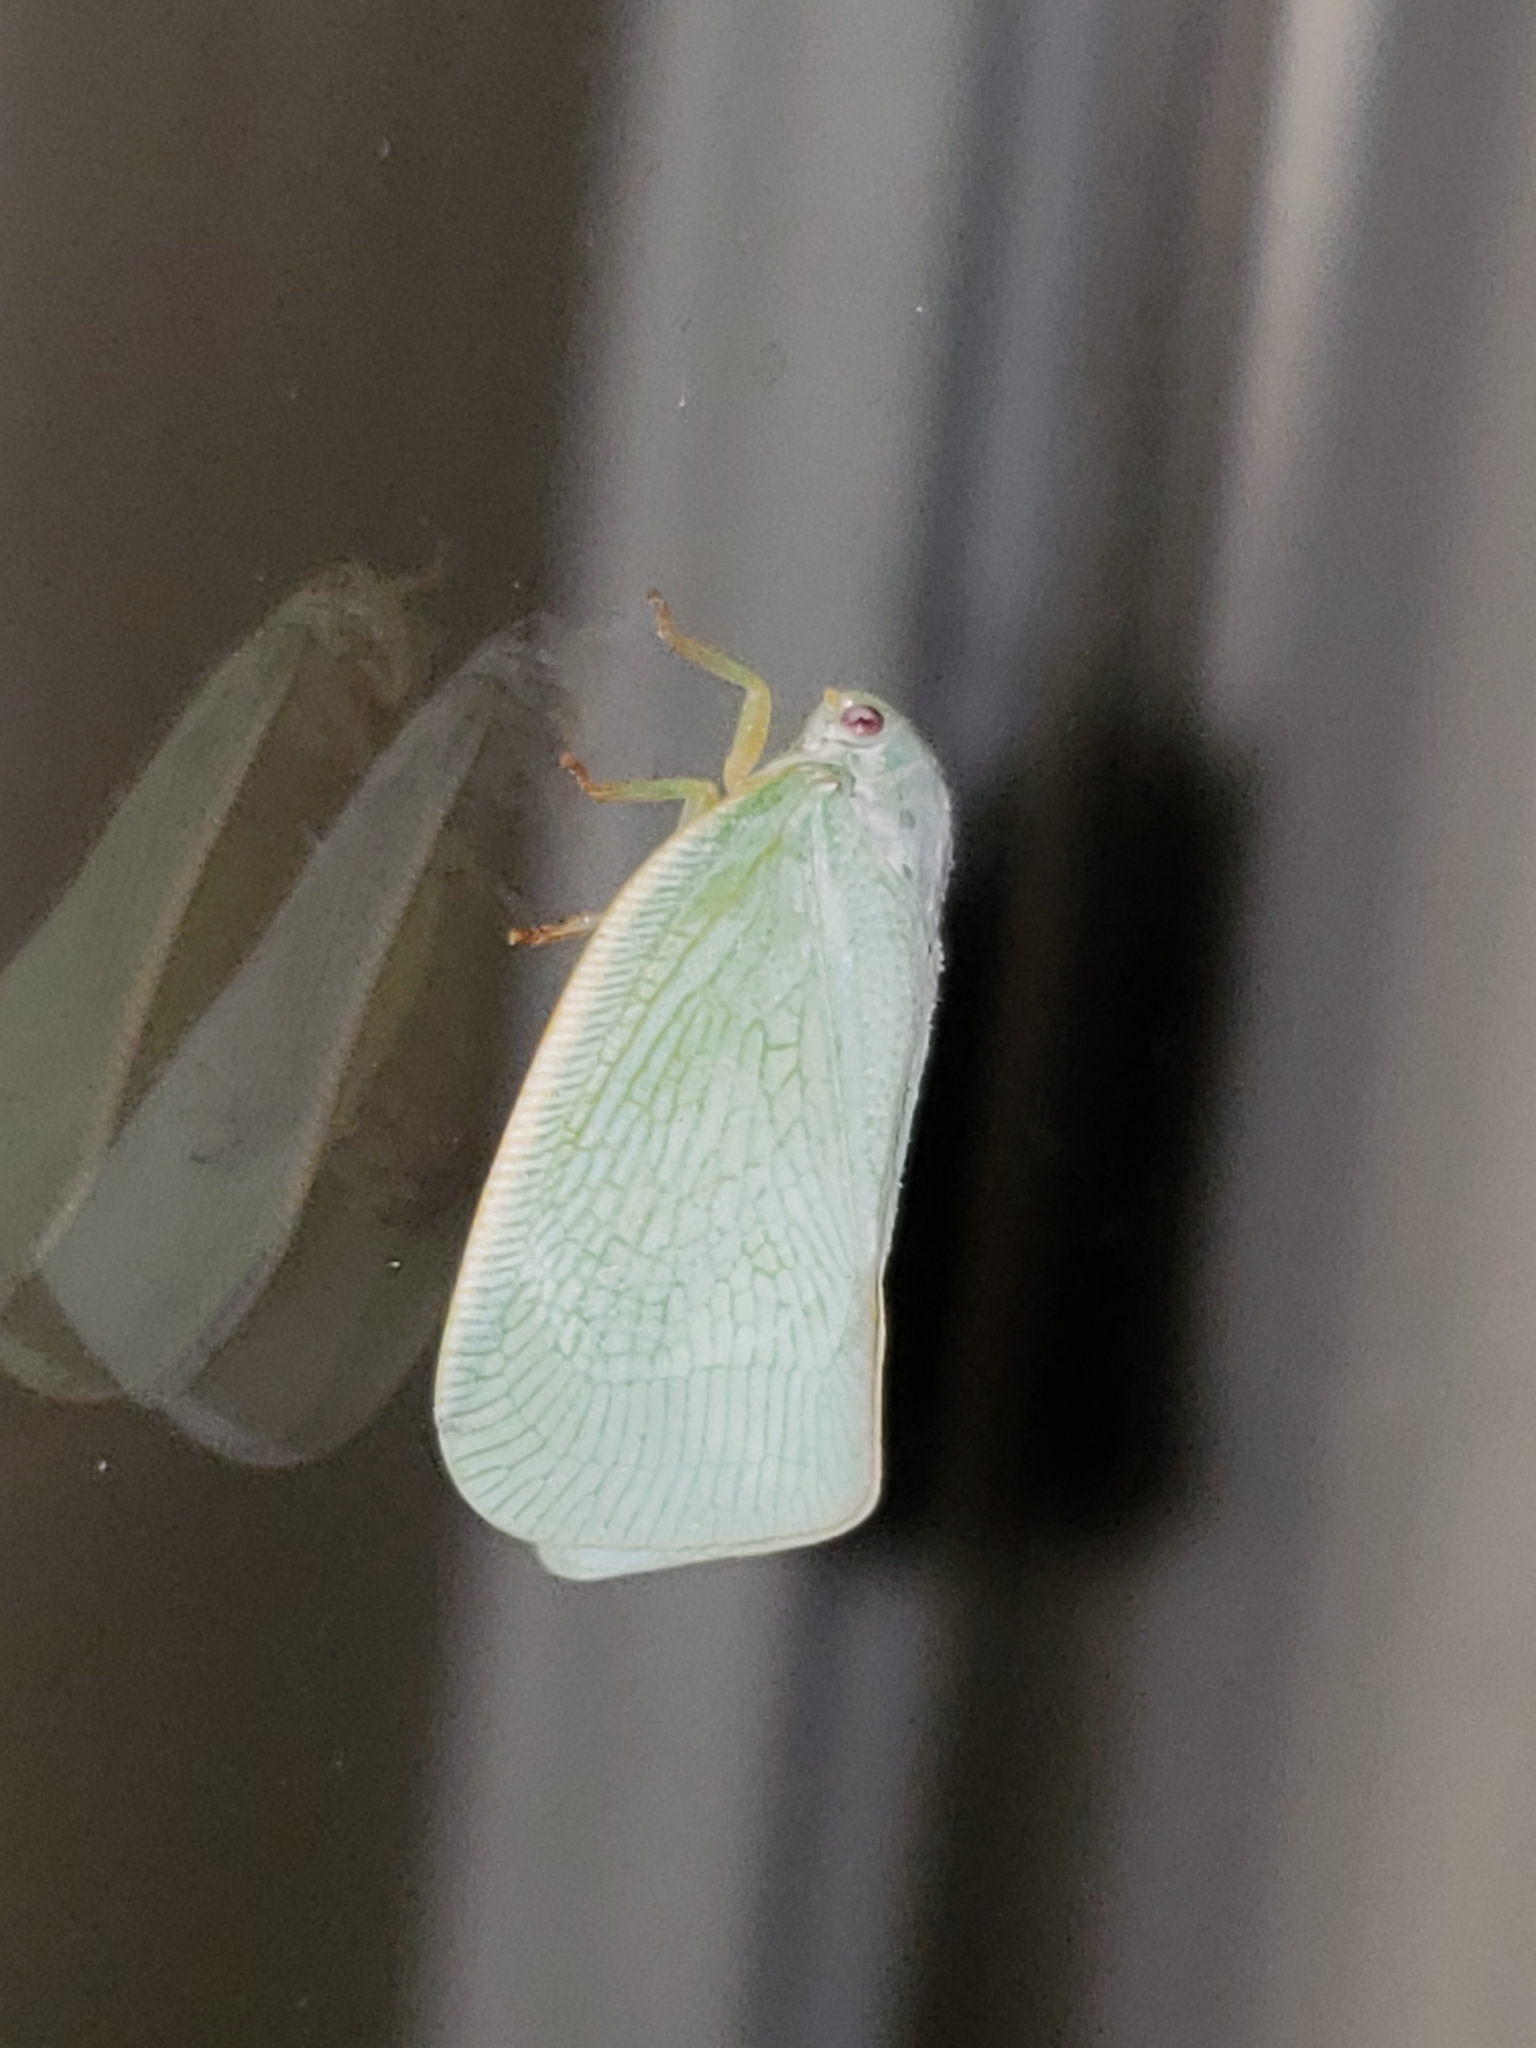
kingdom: Animalia
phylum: Arthropoda
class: Insecta
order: Hemiptera
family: Flatidae
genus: Flatormenis
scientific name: Flatormenis proxima
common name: Northern flatid planthopper
